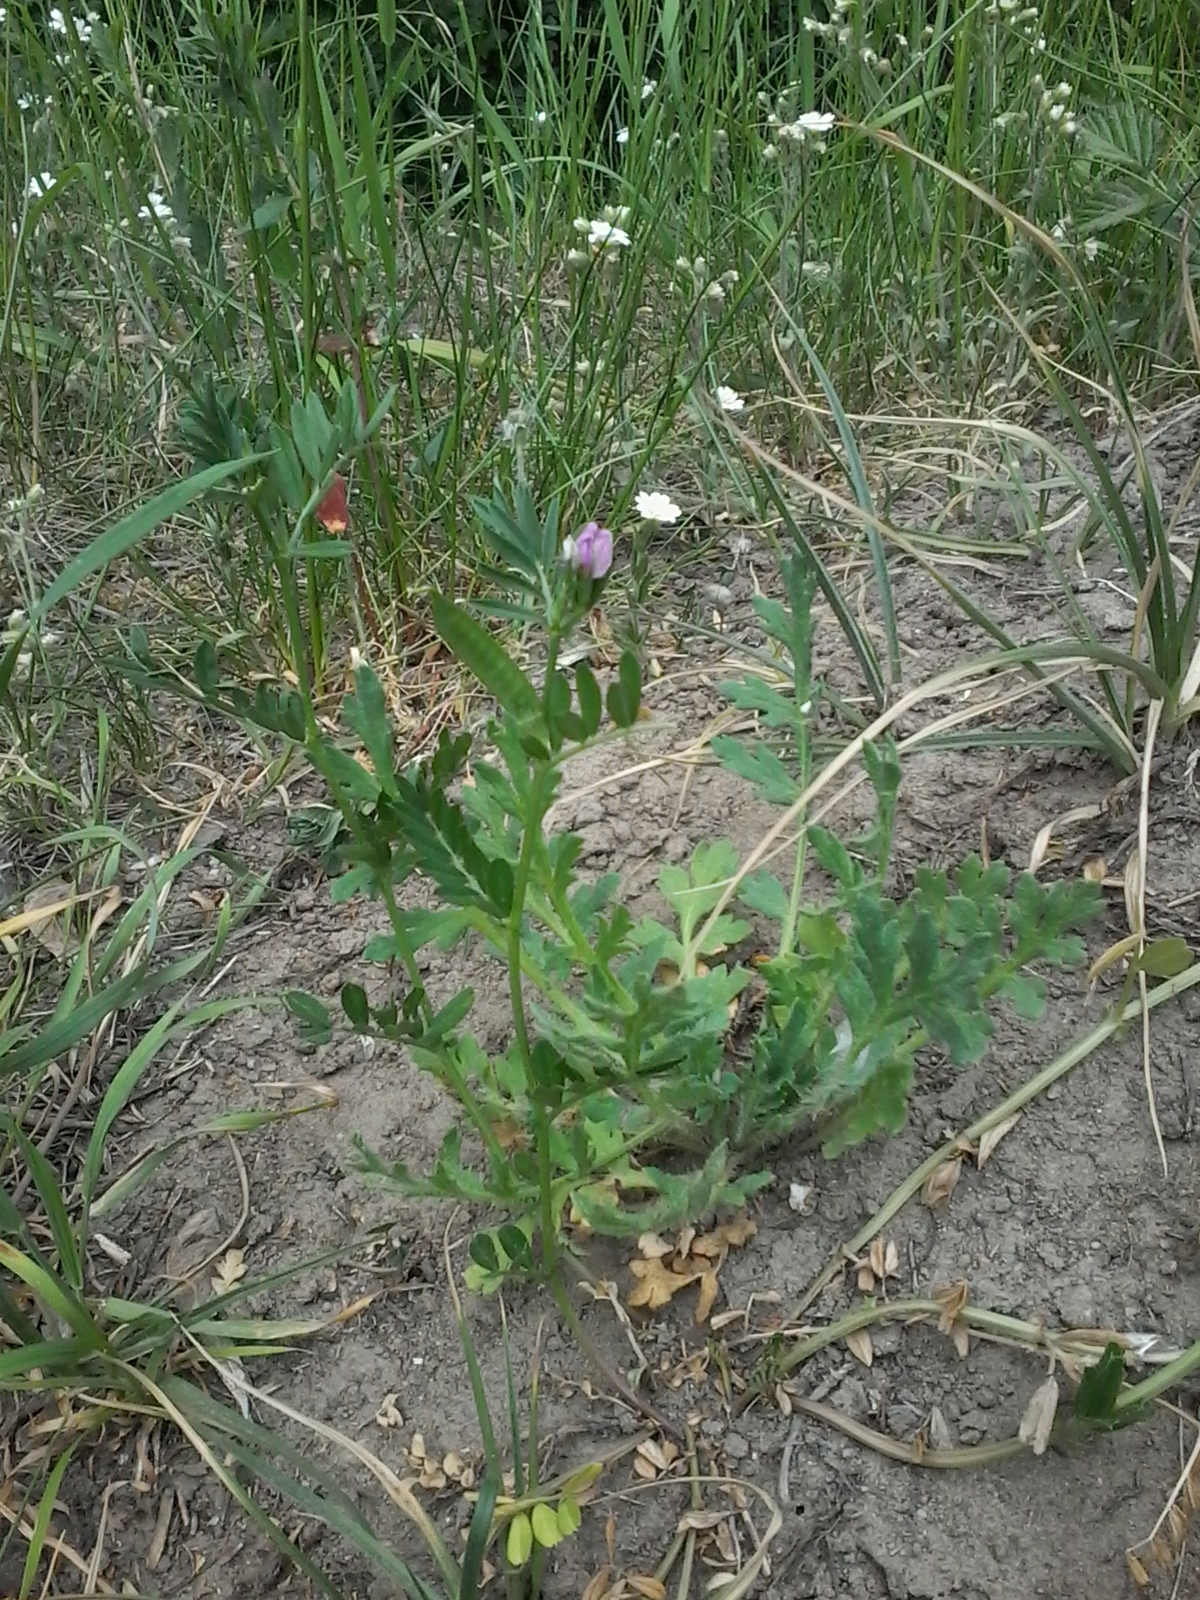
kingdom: Plantae
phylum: Tracheophyta
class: Magnoliopsida
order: Fabales
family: Fabaceae
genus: Vicia
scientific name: Vicia sativa
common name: Garden vetch
